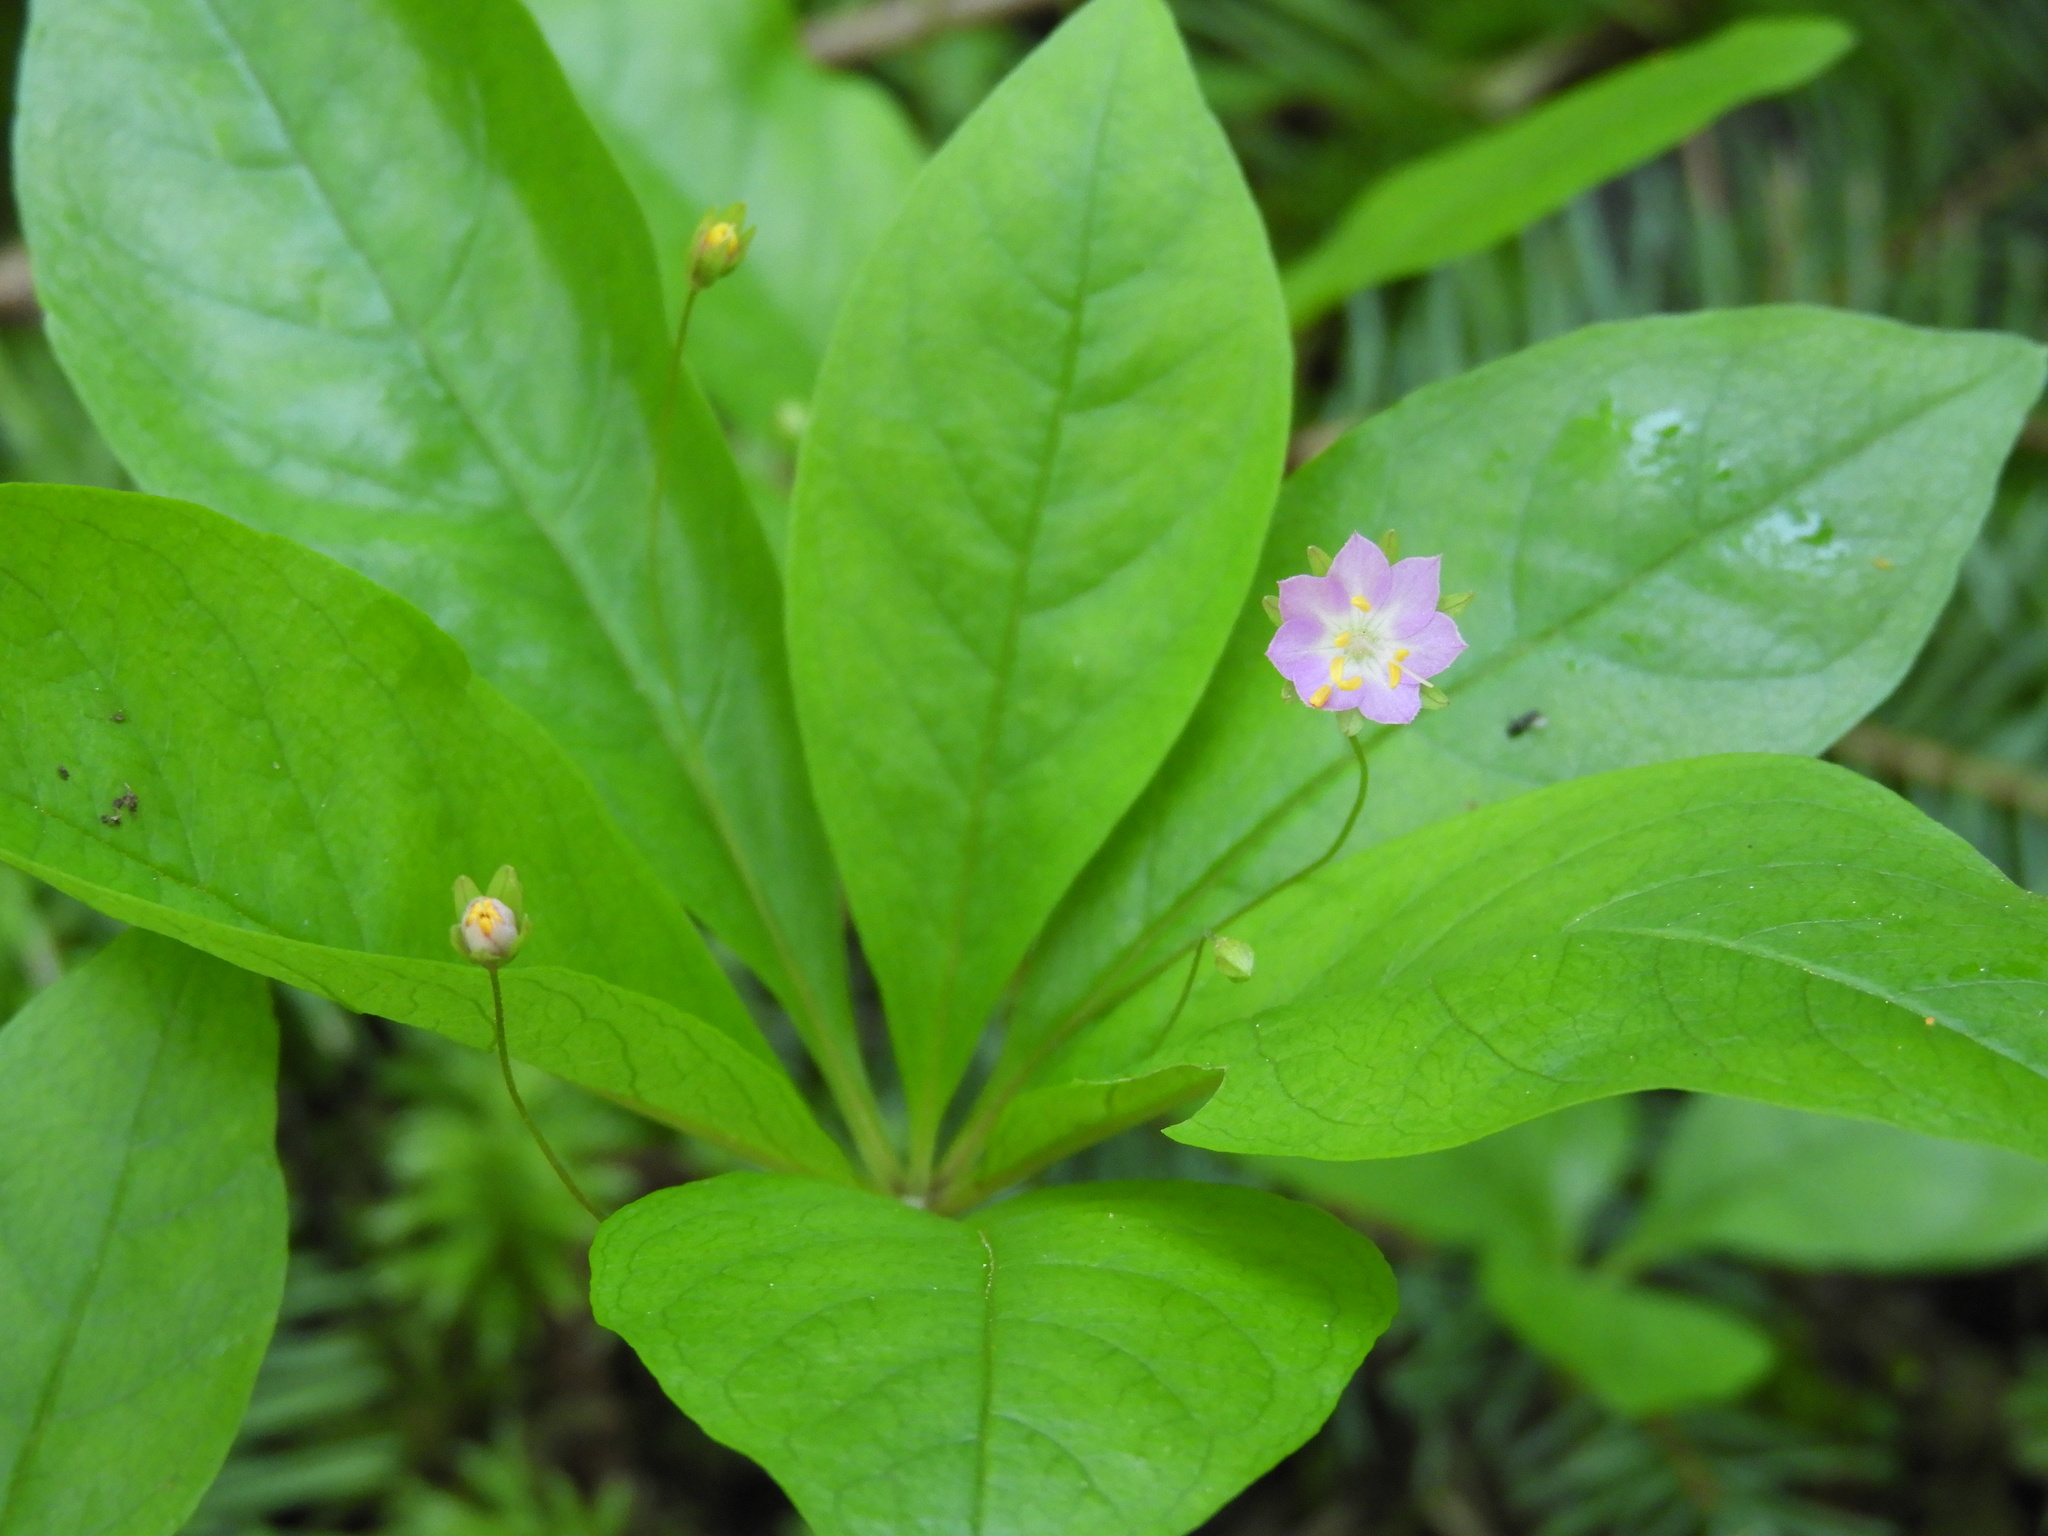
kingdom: Plantae
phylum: Tracheophyta
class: Magnoliopsida
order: Ericales
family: Primulaceae
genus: Lysimachia
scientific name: Lysimachia latifolia
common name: Pacific starflower
